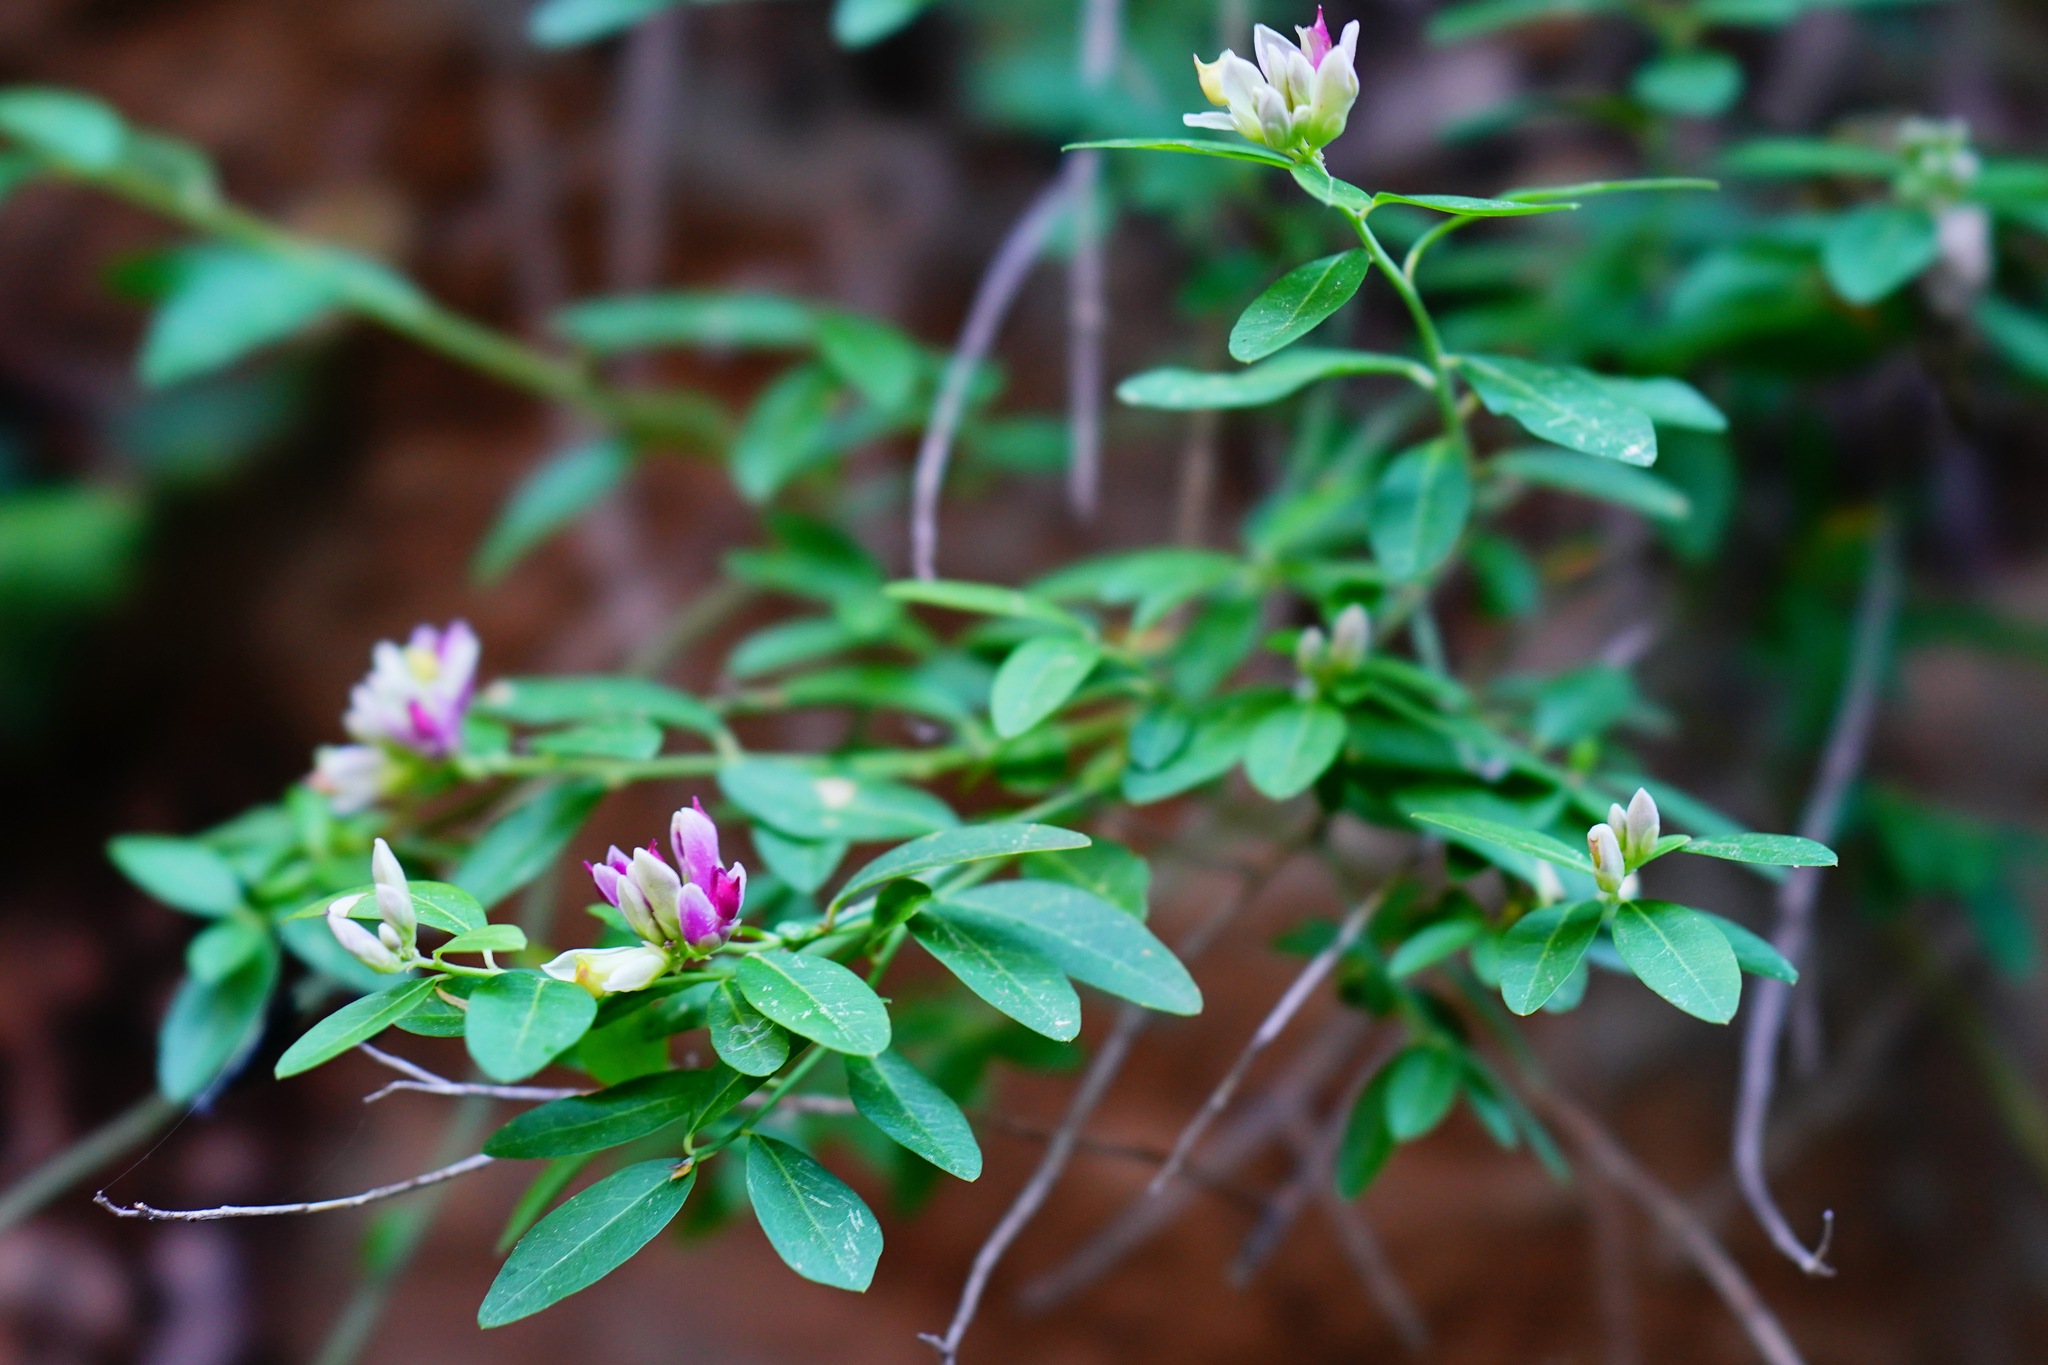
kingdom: Plantae
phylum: Tracheophyta
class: Magnoliopsida
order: Fabales
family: Polygalaceae
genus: Rhinotropis
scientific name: Rhinotropis cornuta
